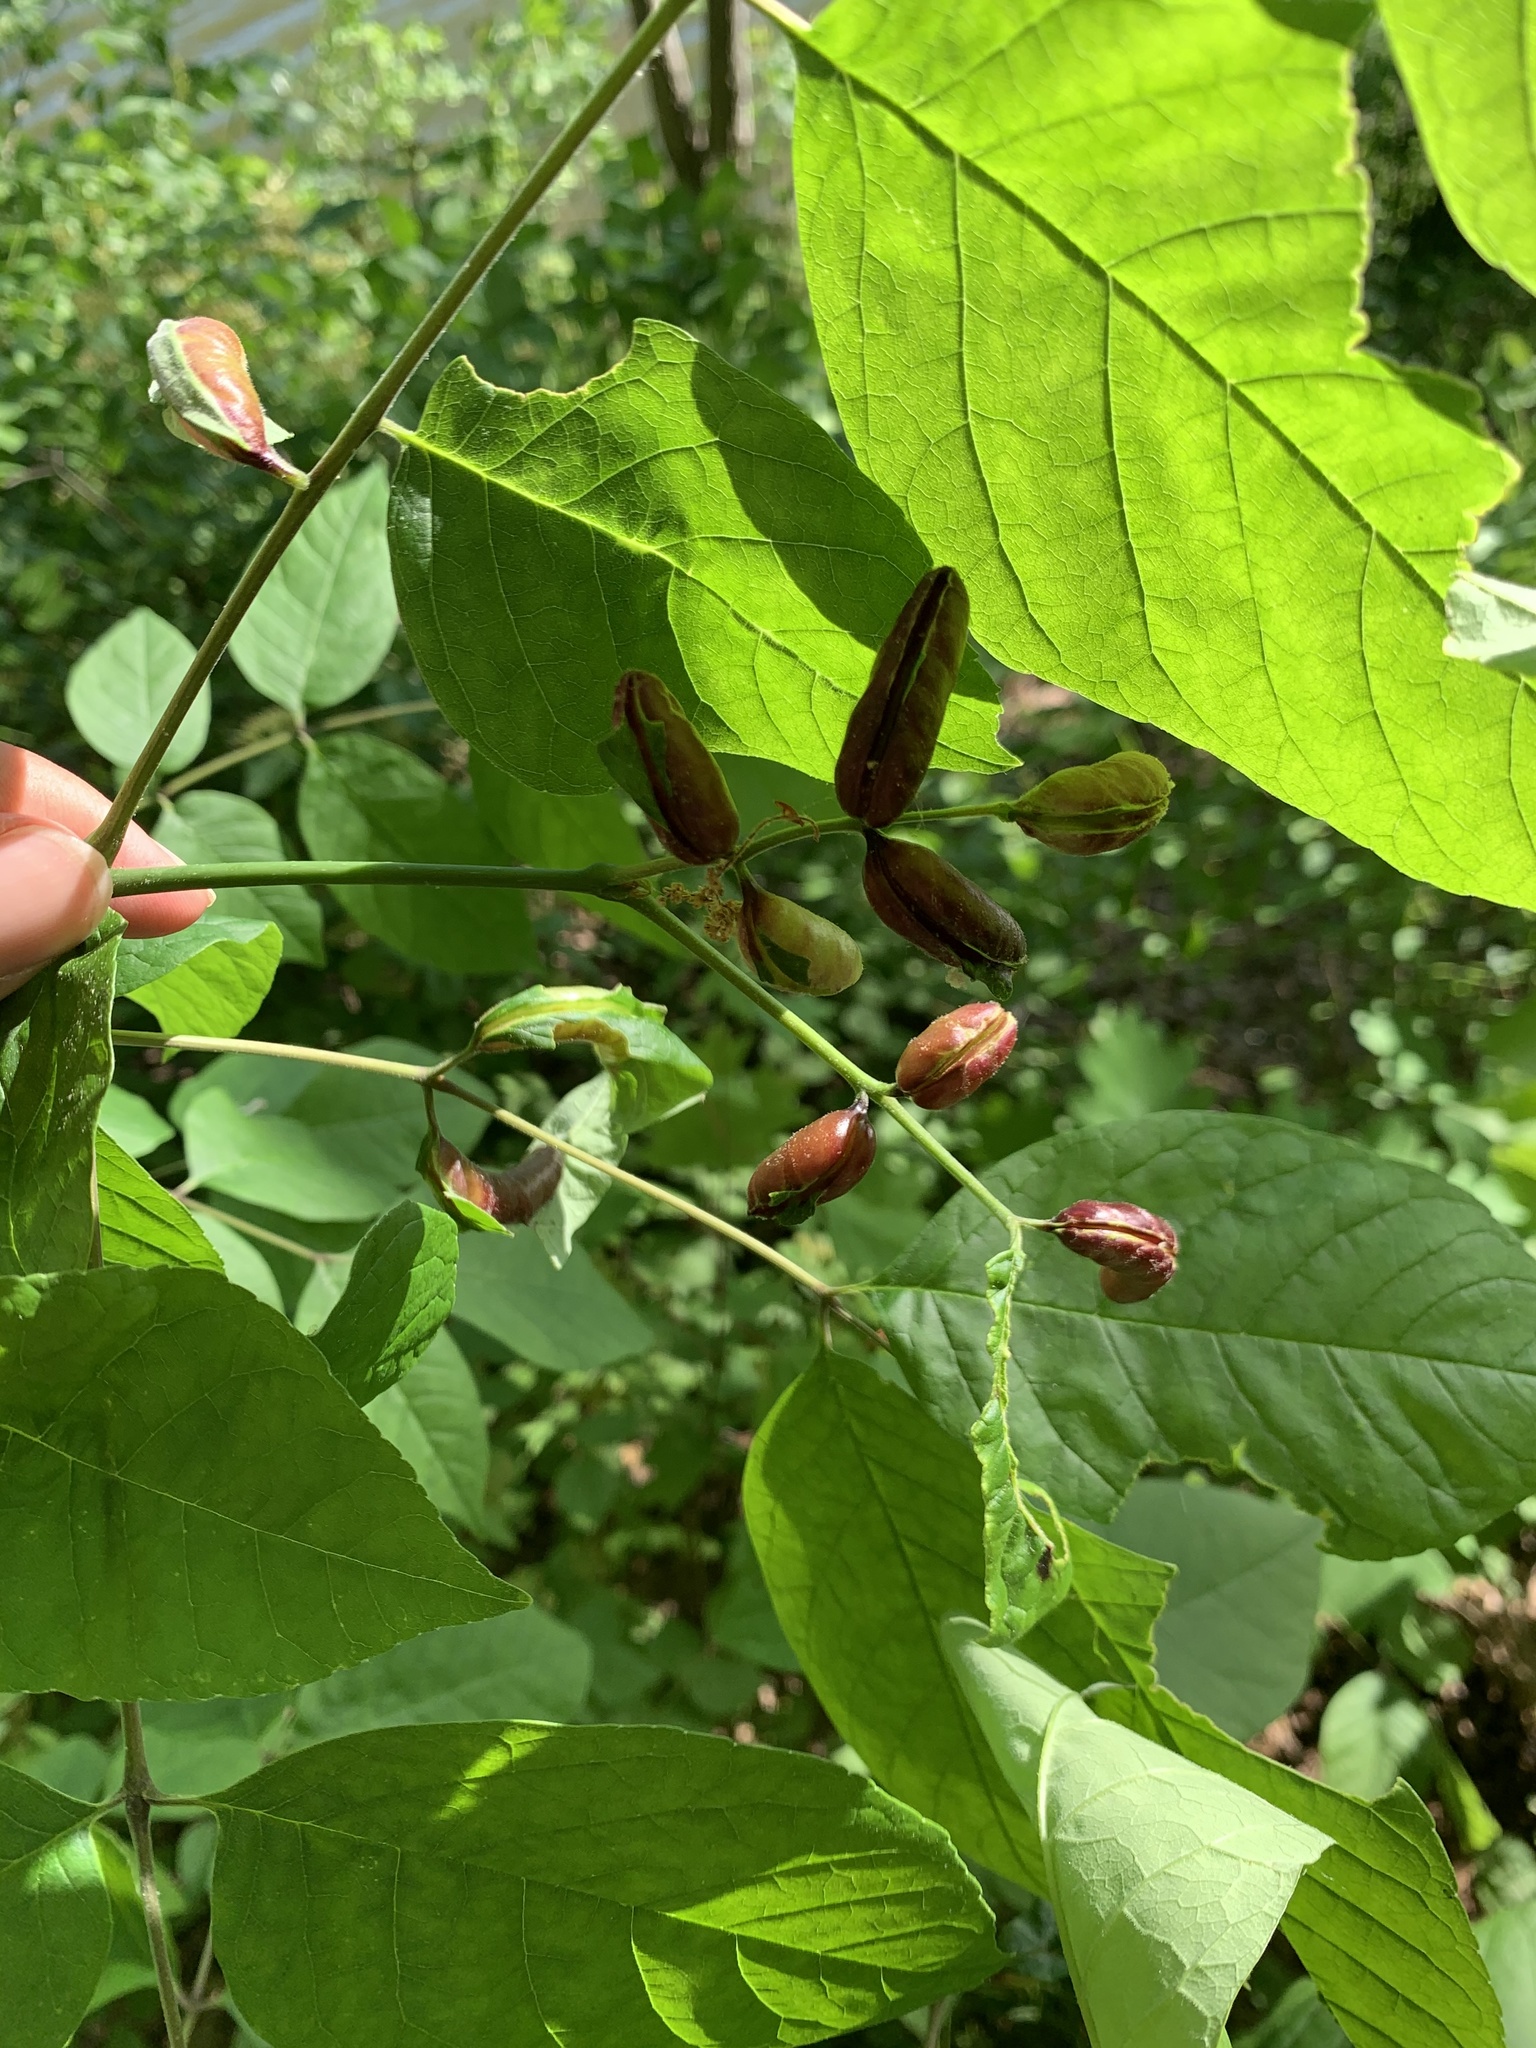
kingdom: Animalia
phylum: Arthropoda
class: Insecta
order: Diptera
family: Cecidomyiidae
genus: Dasineura
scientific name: Dasineura tumidosae
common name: Ash petiole gall midge
